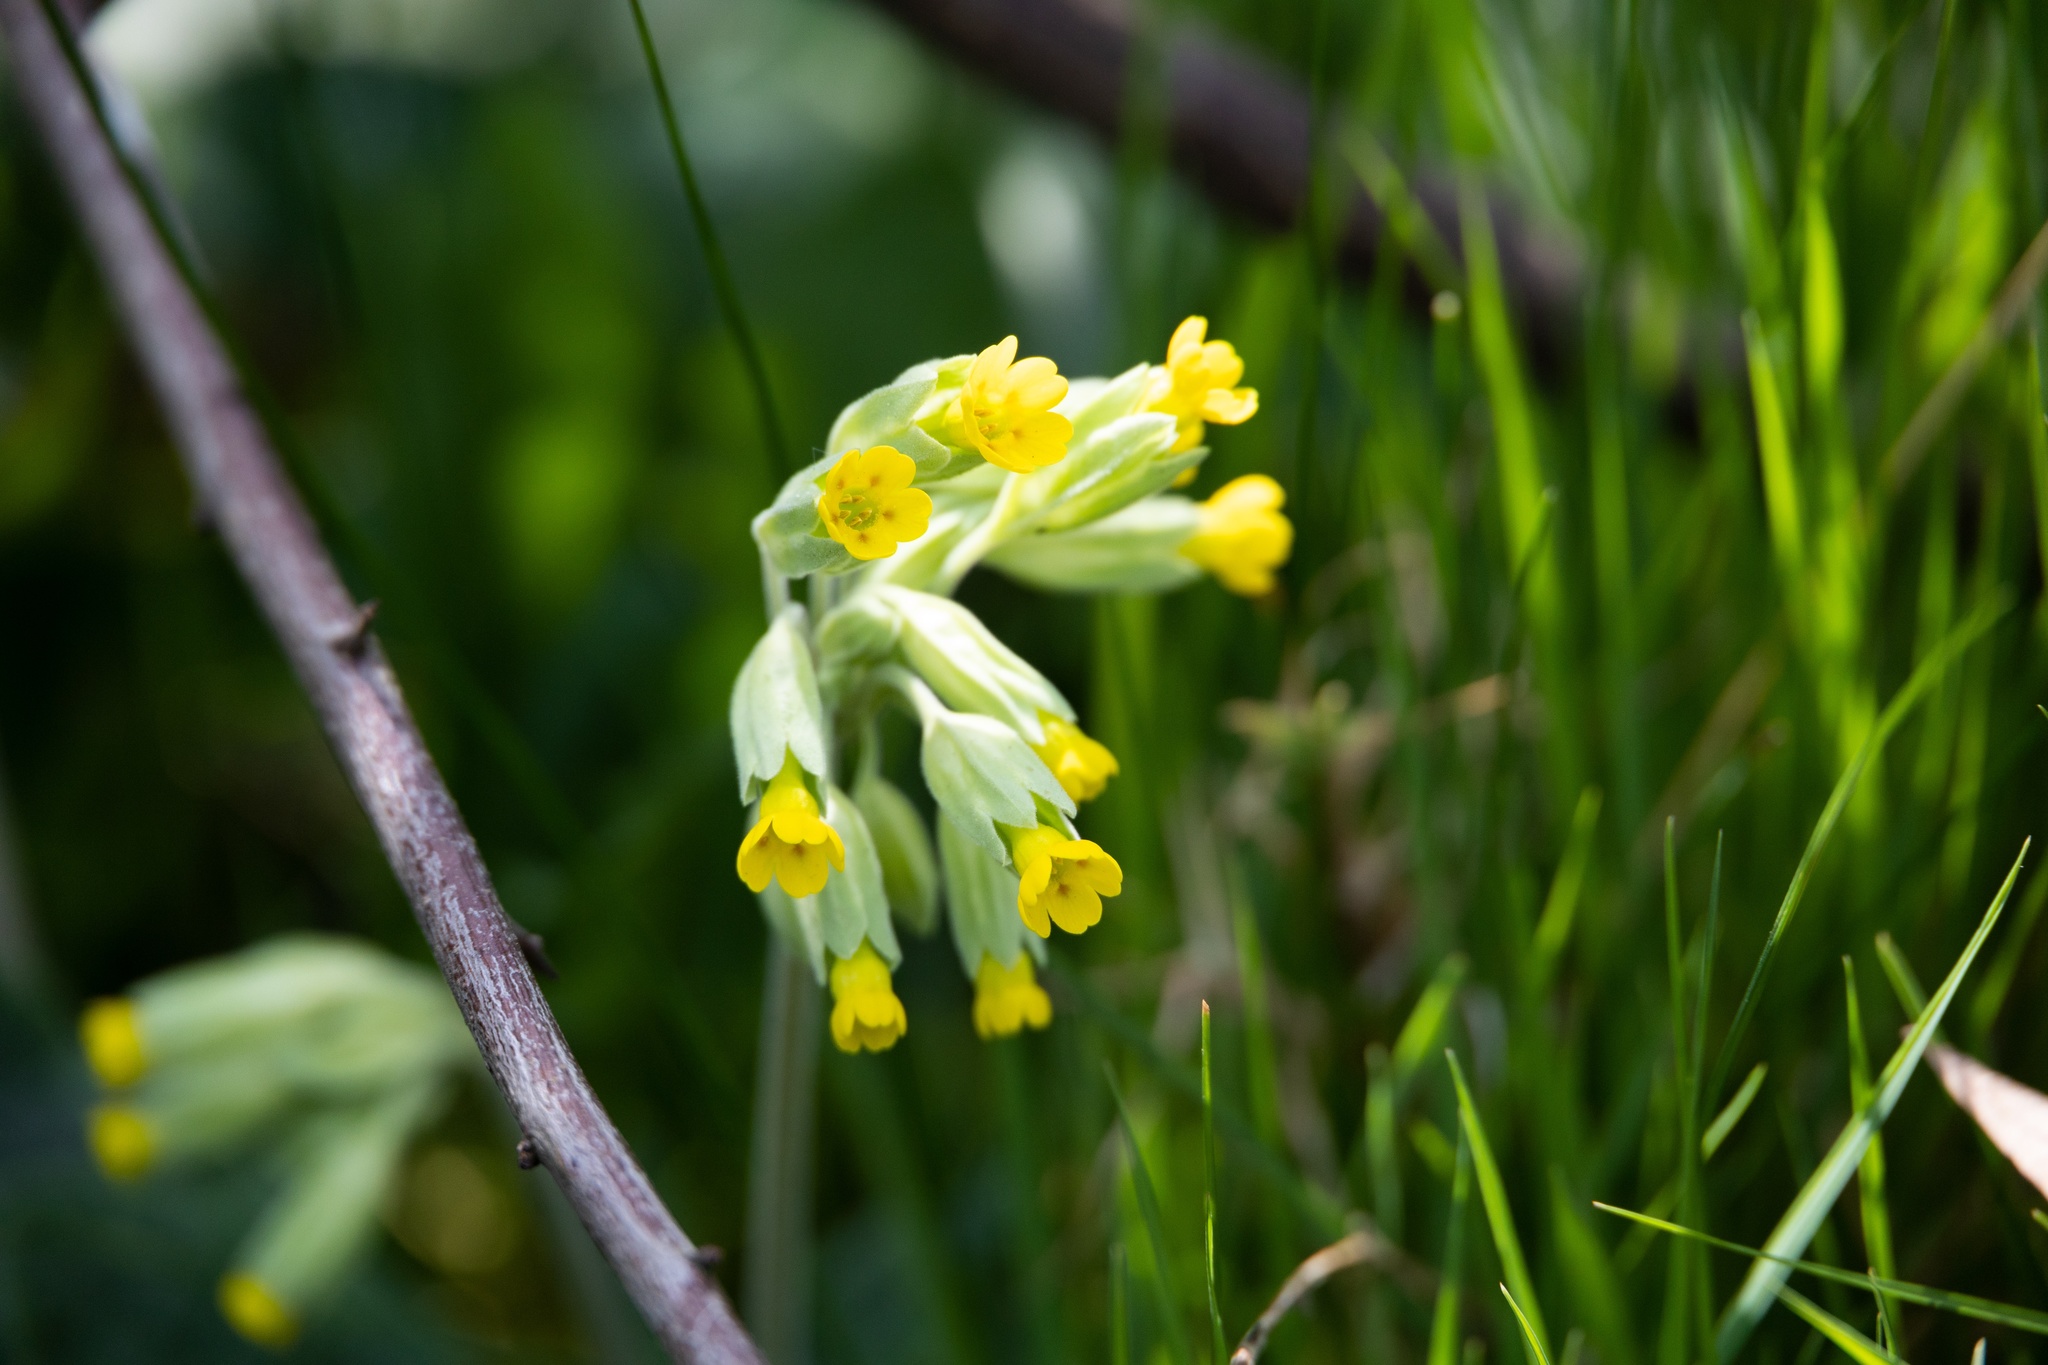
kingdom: Plantae
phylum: Tracheophyta
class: Magnoliopsida
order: Ericales
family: Primulaceae
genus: Primula
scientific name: Primula veris
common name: Cowslip
